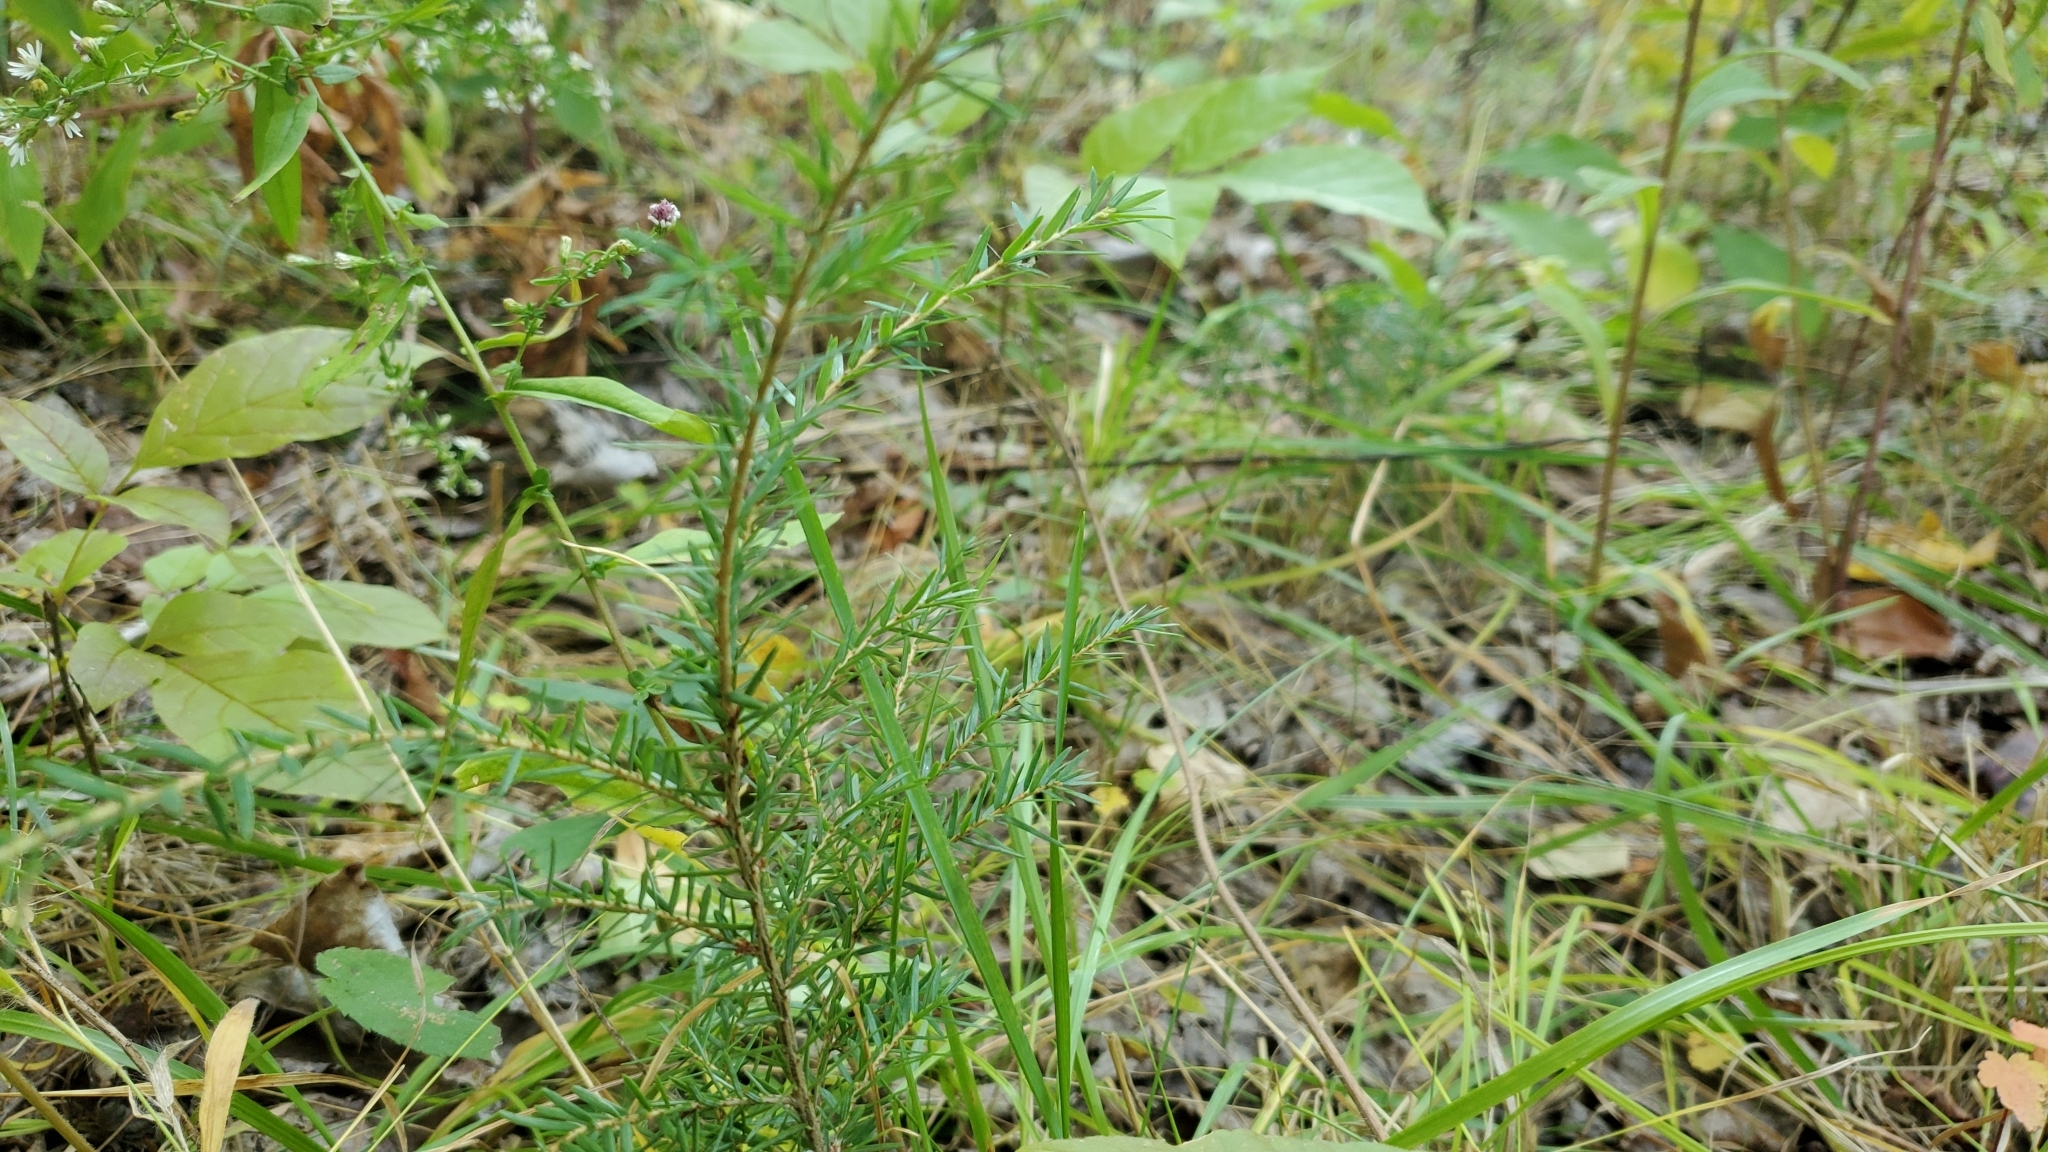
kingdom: Plantae
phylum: Tracheophyta
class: Pinopsida
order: Pinales
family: Pinaceae
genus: Tsuga
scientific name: Tsuga canadensis
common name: Eastern hemlock
